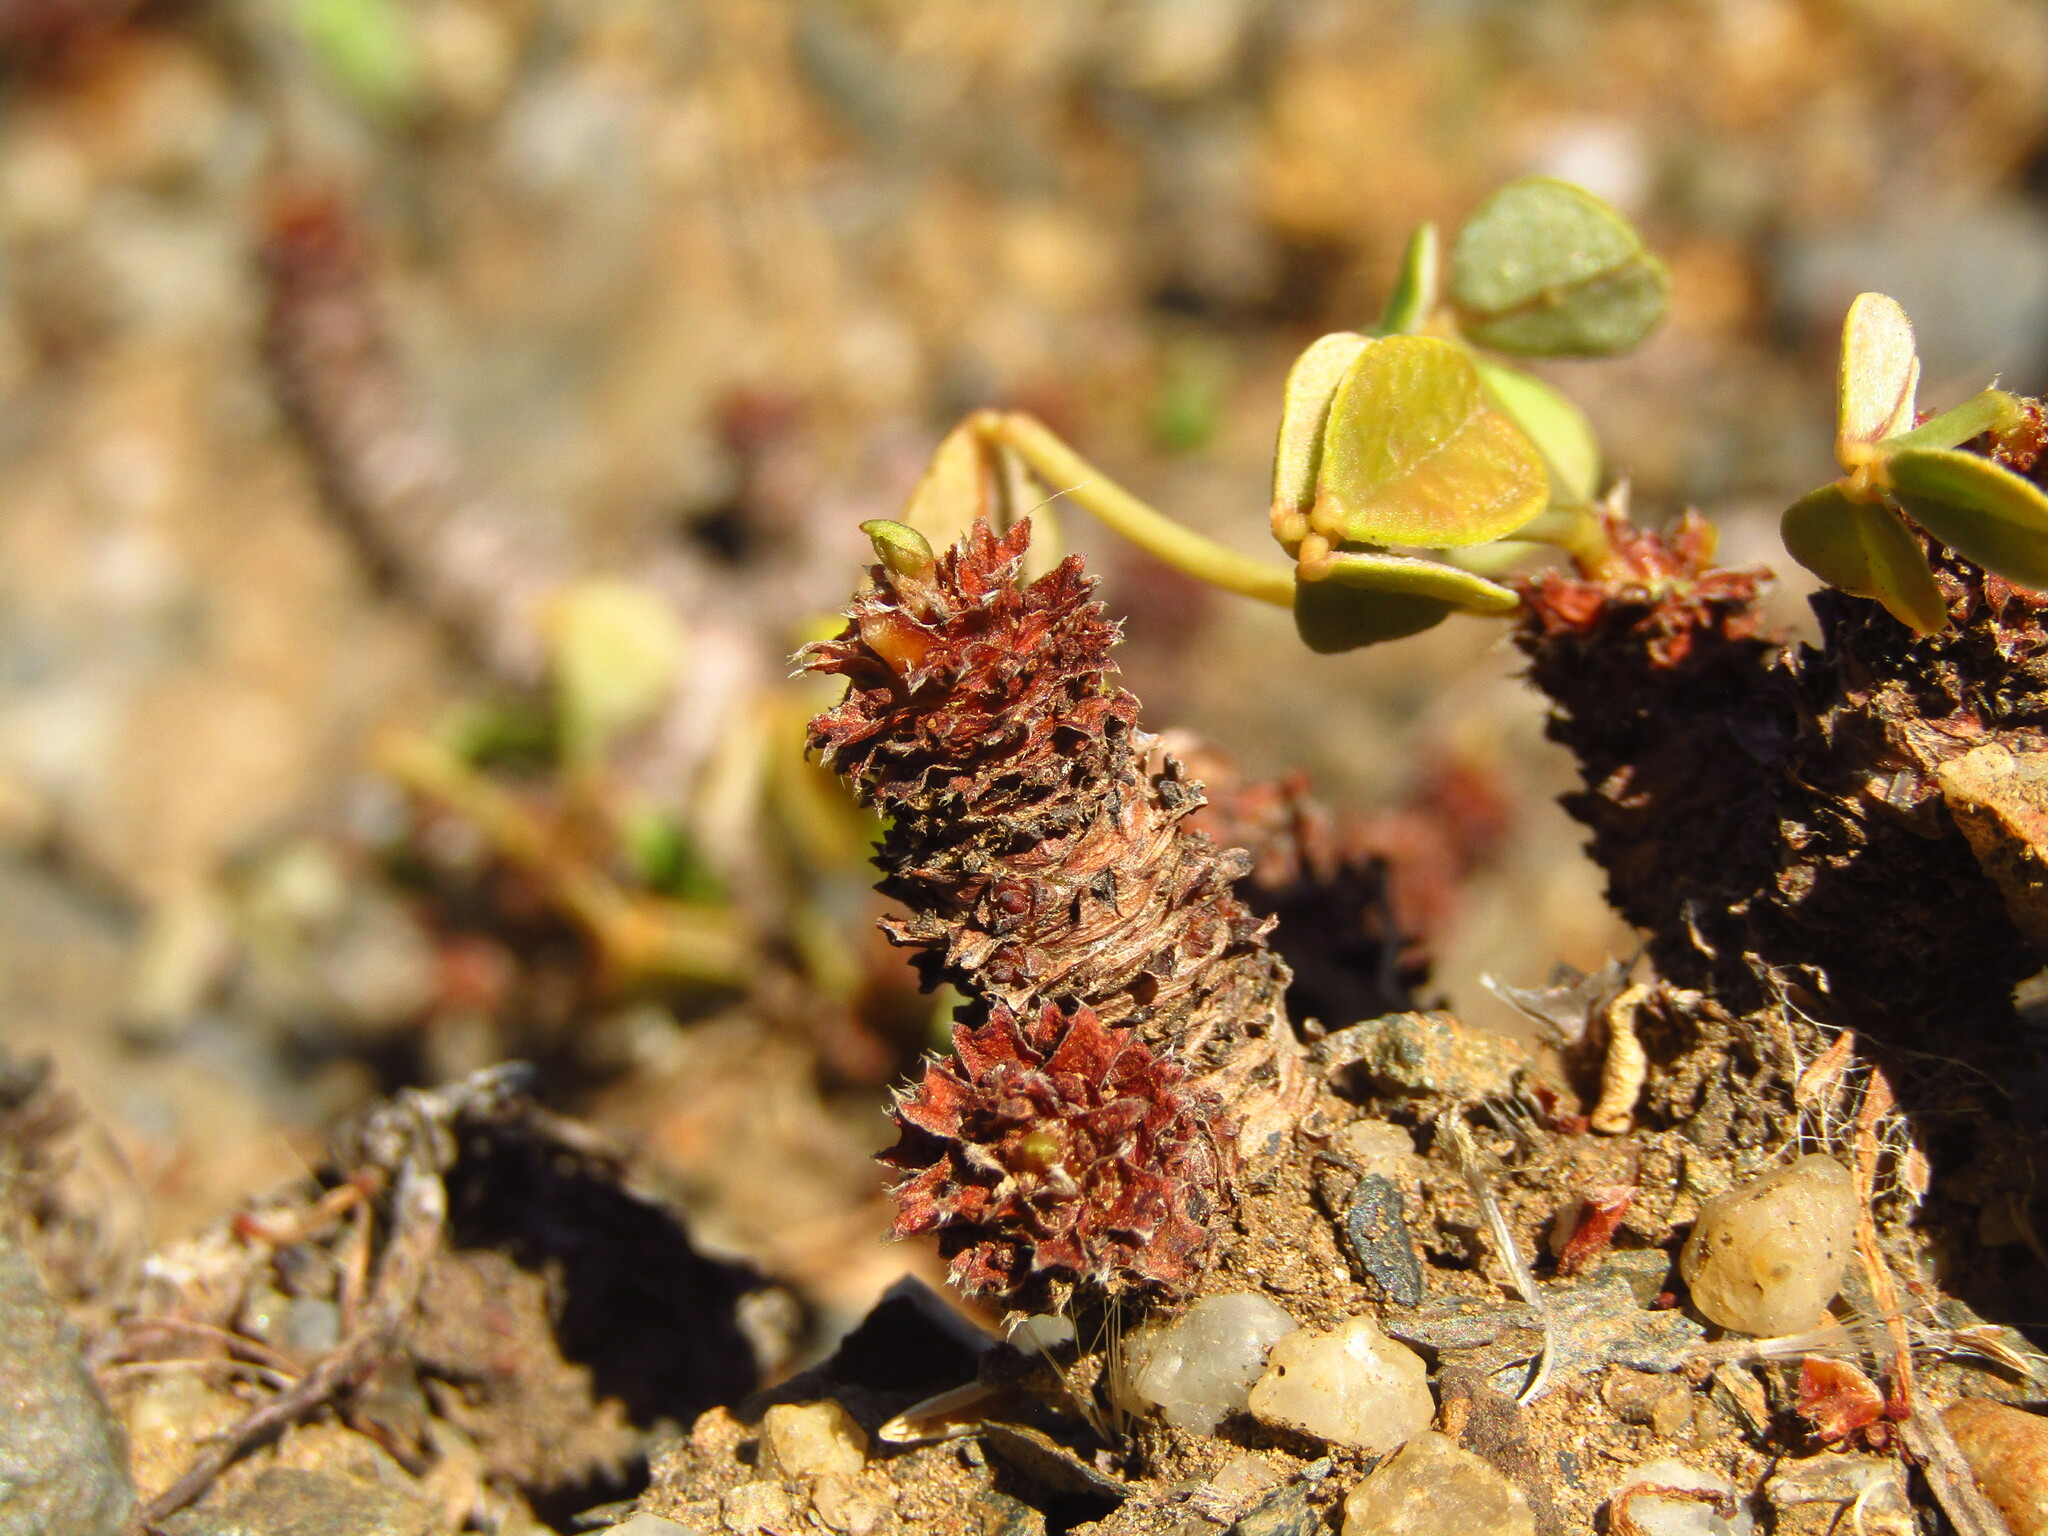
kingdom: Plantae
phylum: Tracheophyta
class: Magnoliopsida
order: Oxalidales
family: Oxalidaceae
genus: Oxalis
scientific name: Oxalis megalorrhiza
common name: Fleshy yellow-sorrel
